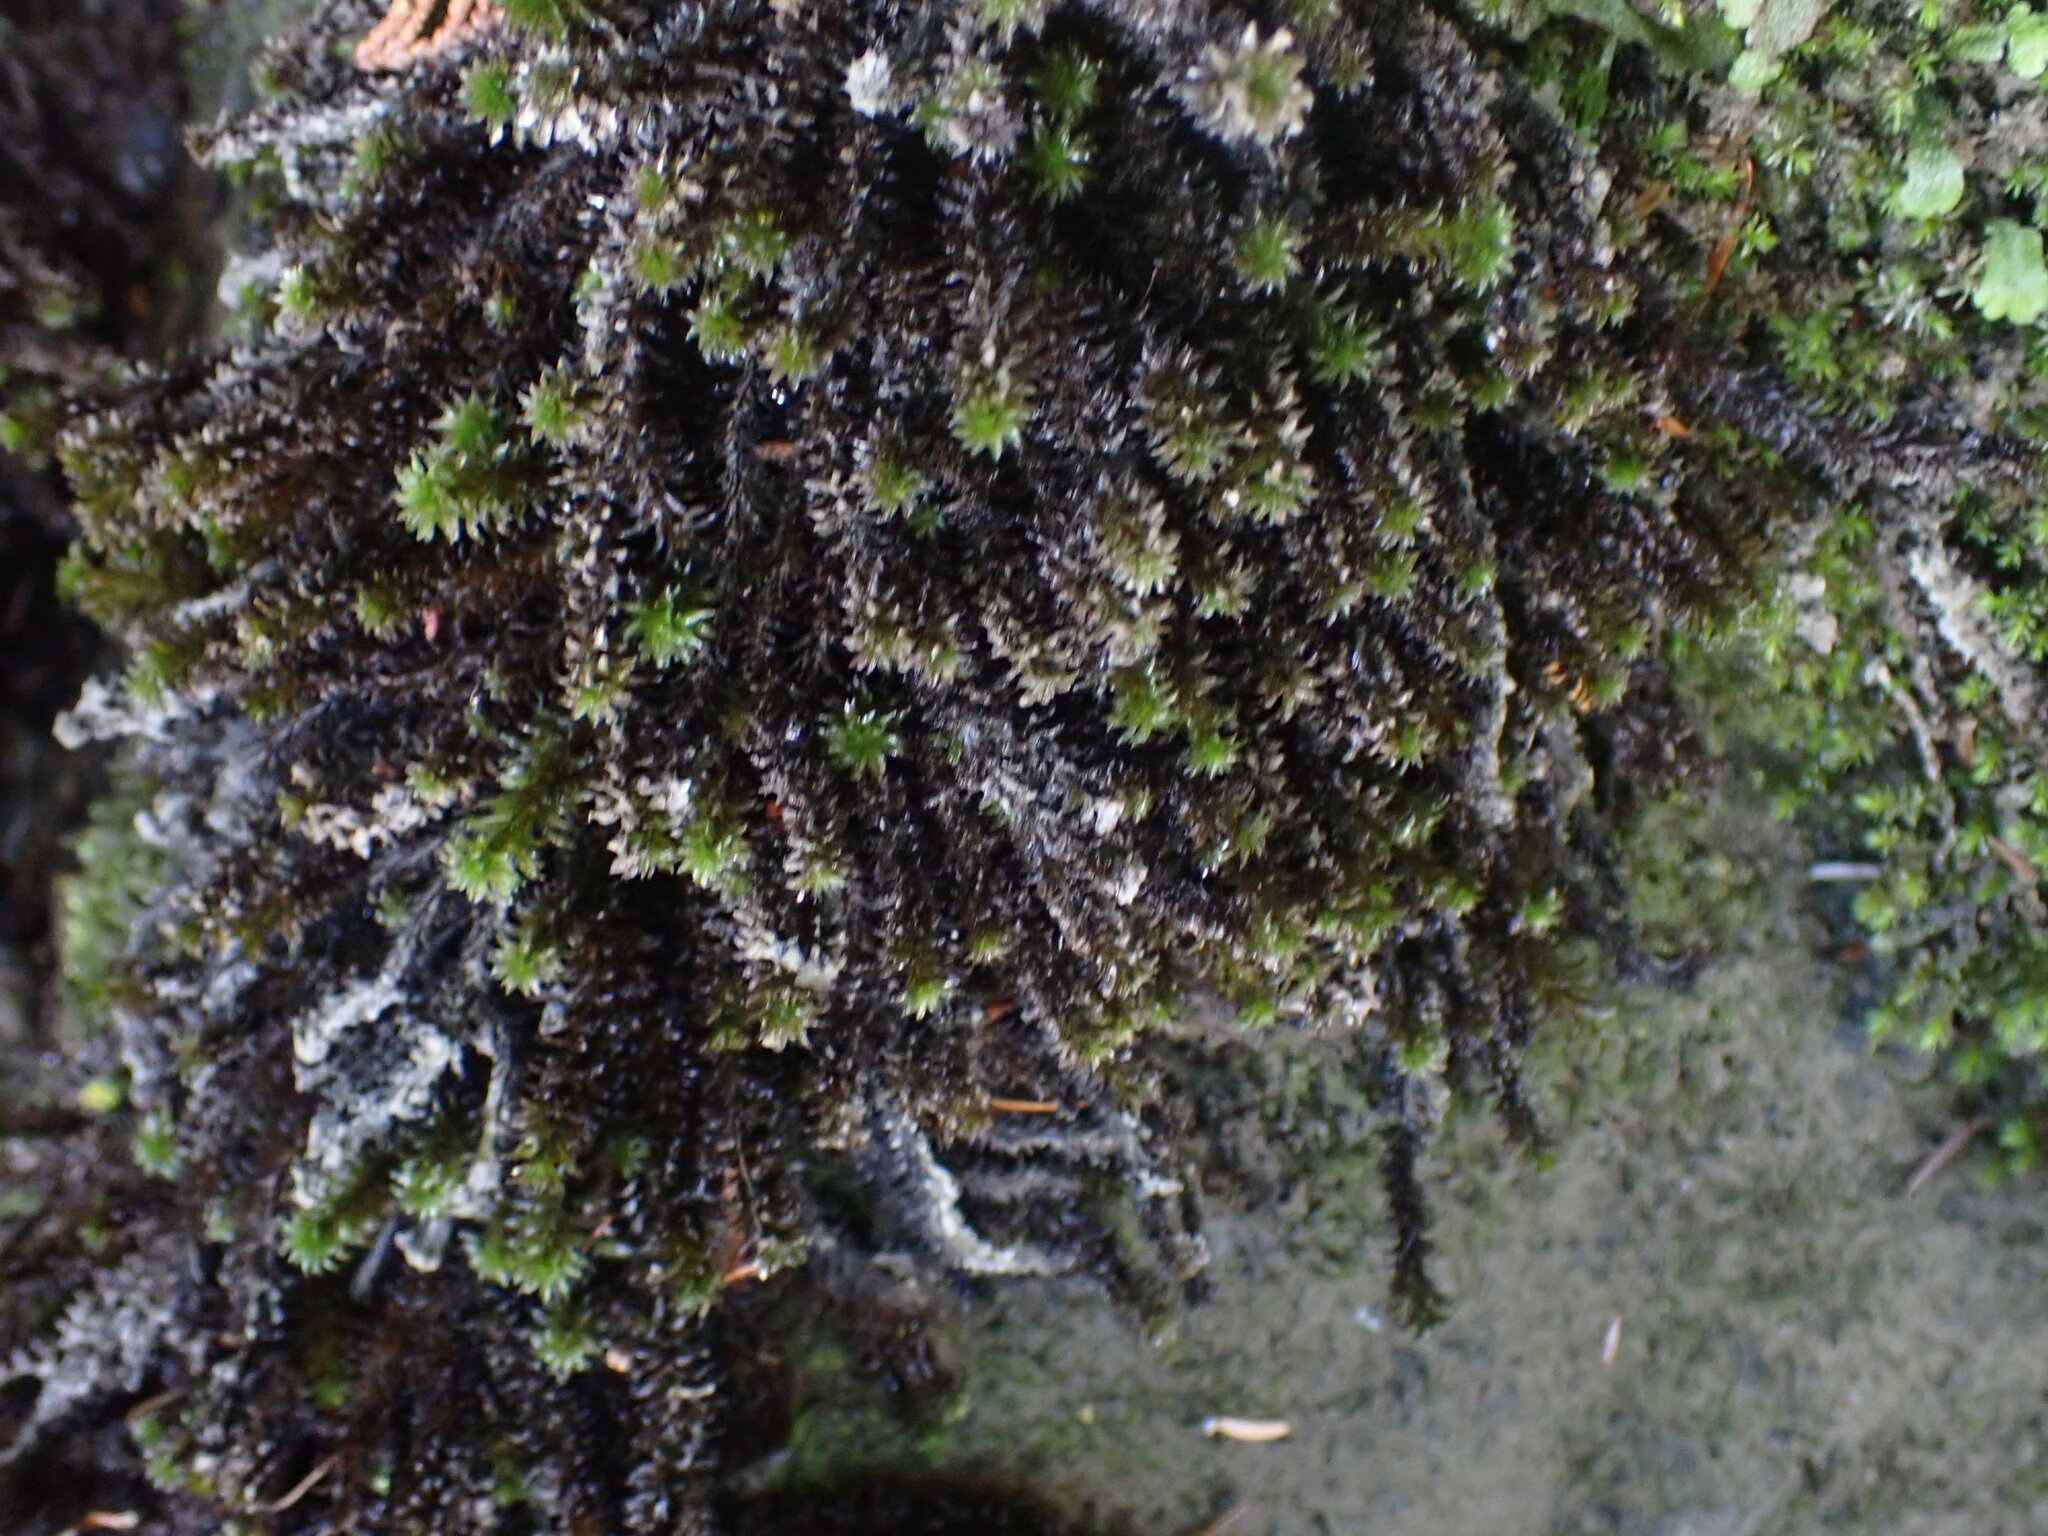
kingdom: Plantae
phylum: Bryophyta
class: Bryopsida
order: Scouleriales
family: Scouleriaceae
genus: Scouleria
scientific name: Scouleria aquatica
